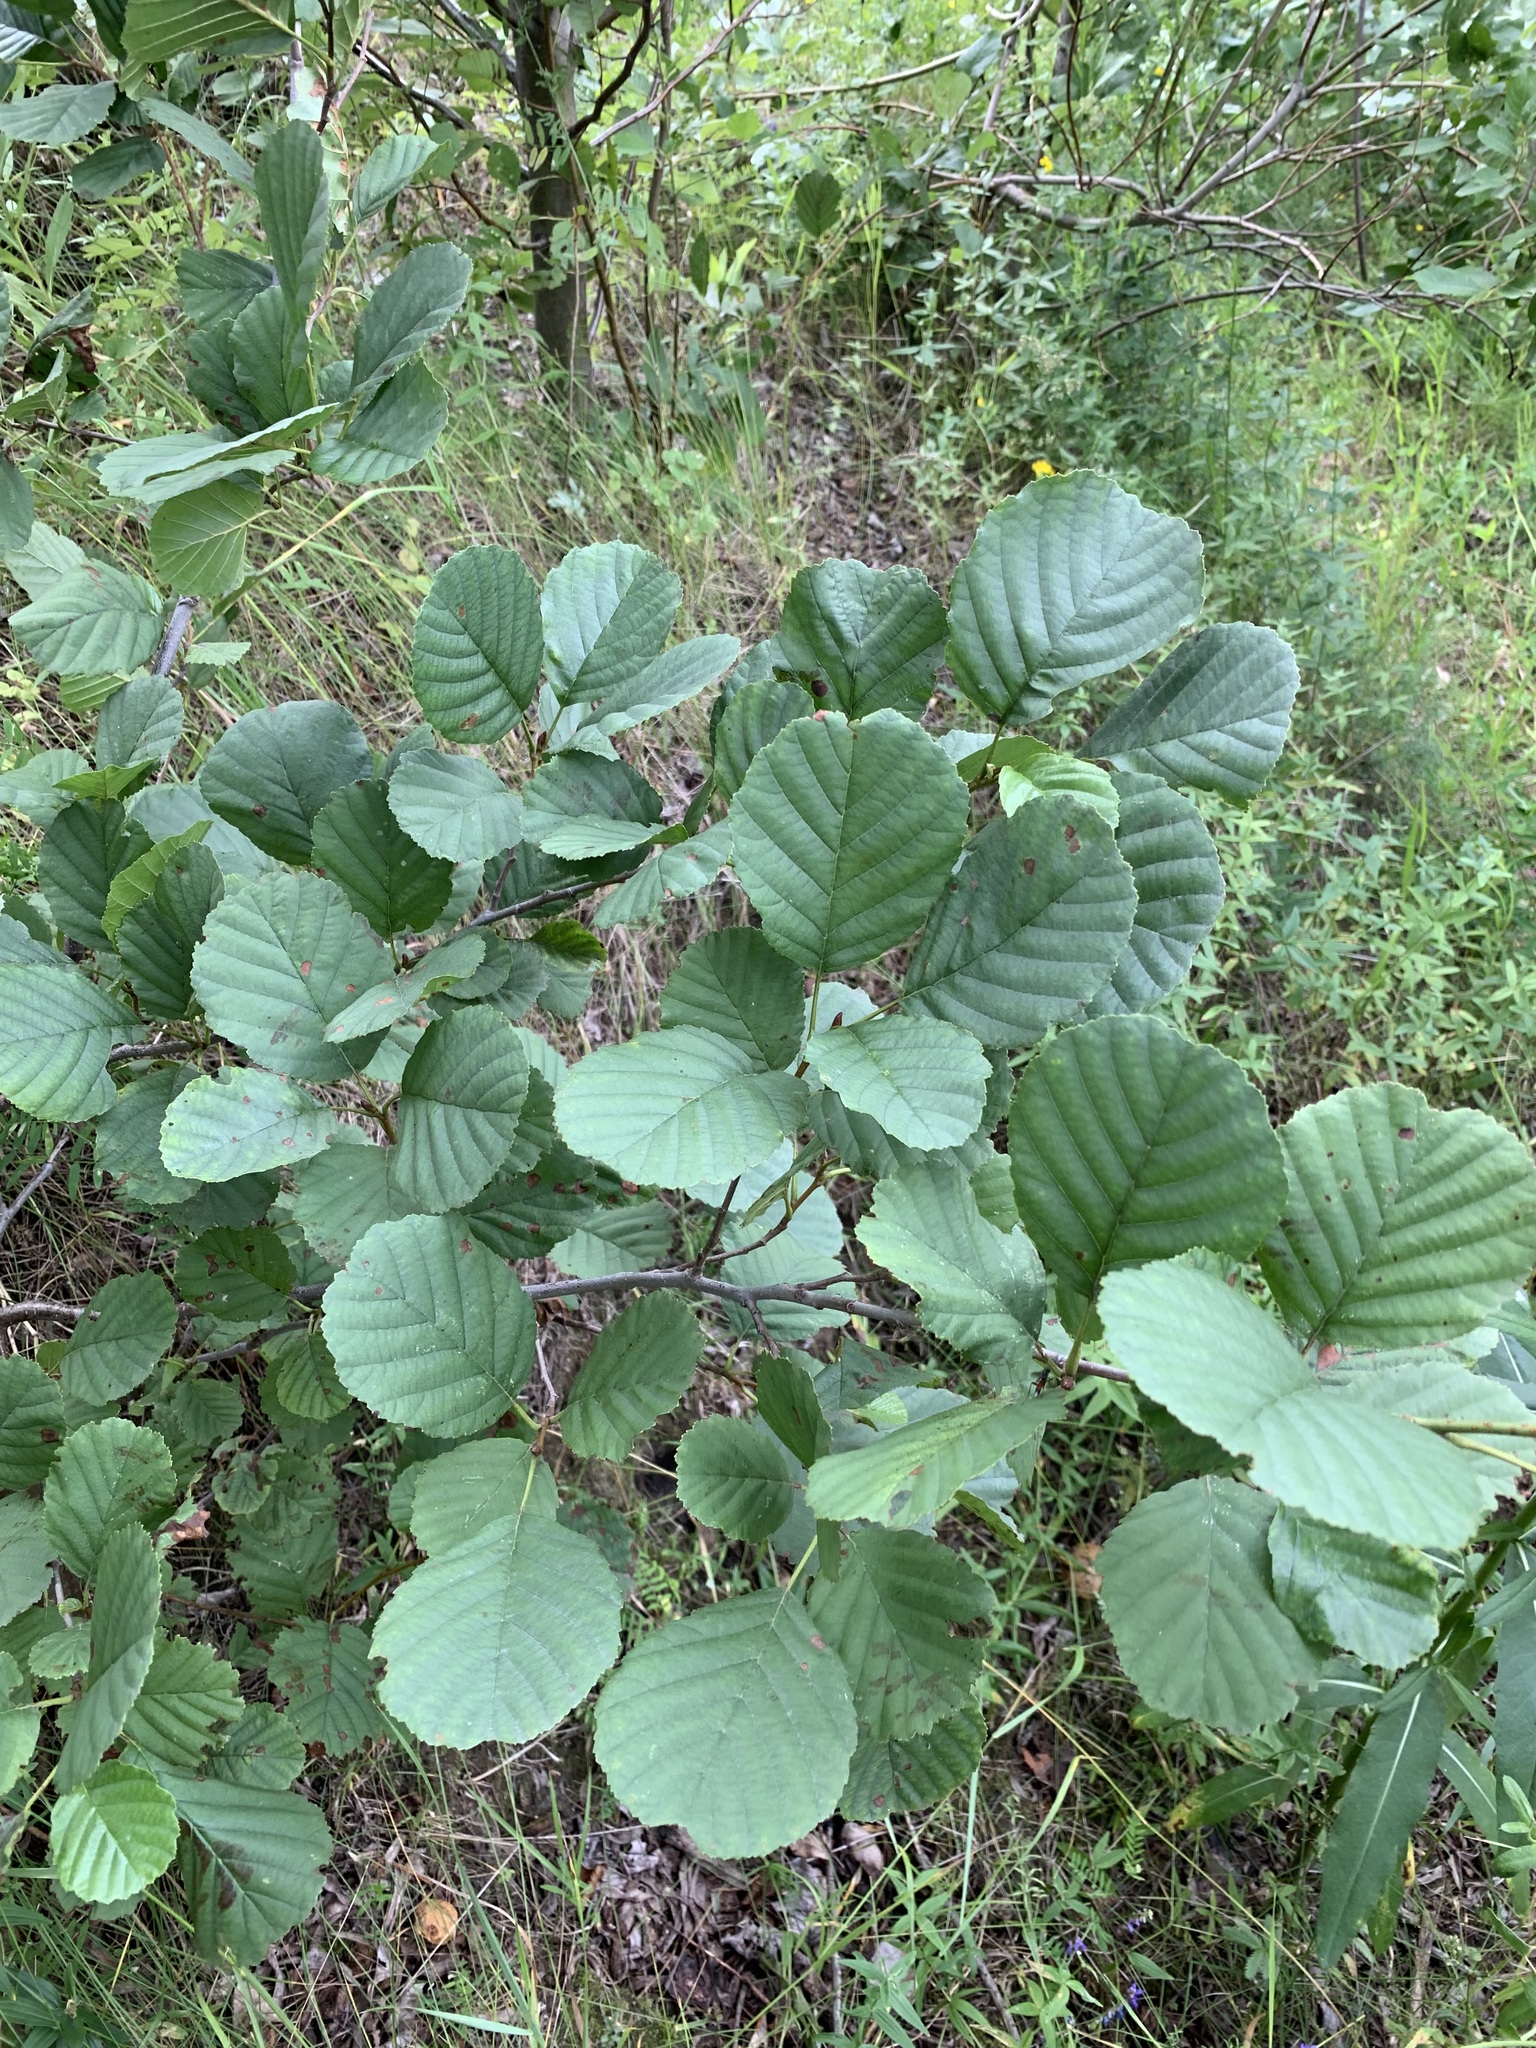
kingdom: Plantae
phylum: Tracheophyta
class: Magnoliopsida
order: Fagales
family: Betulaceae
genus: Alnus
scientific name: Alnus glutinosa
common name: Black alder
